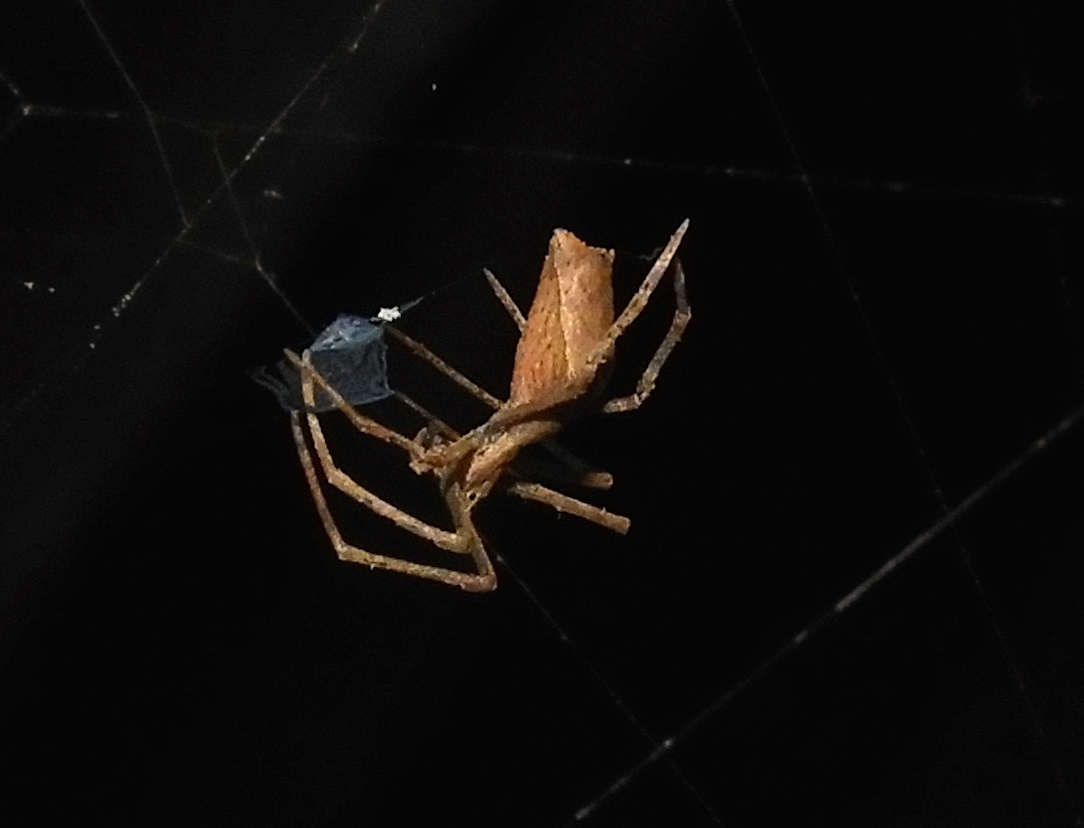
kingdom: Animalia
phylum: Arthropoda
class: Arachnida
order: Araneae
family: Deinopidae
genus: Deinopis
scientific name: Deinopis aurita
